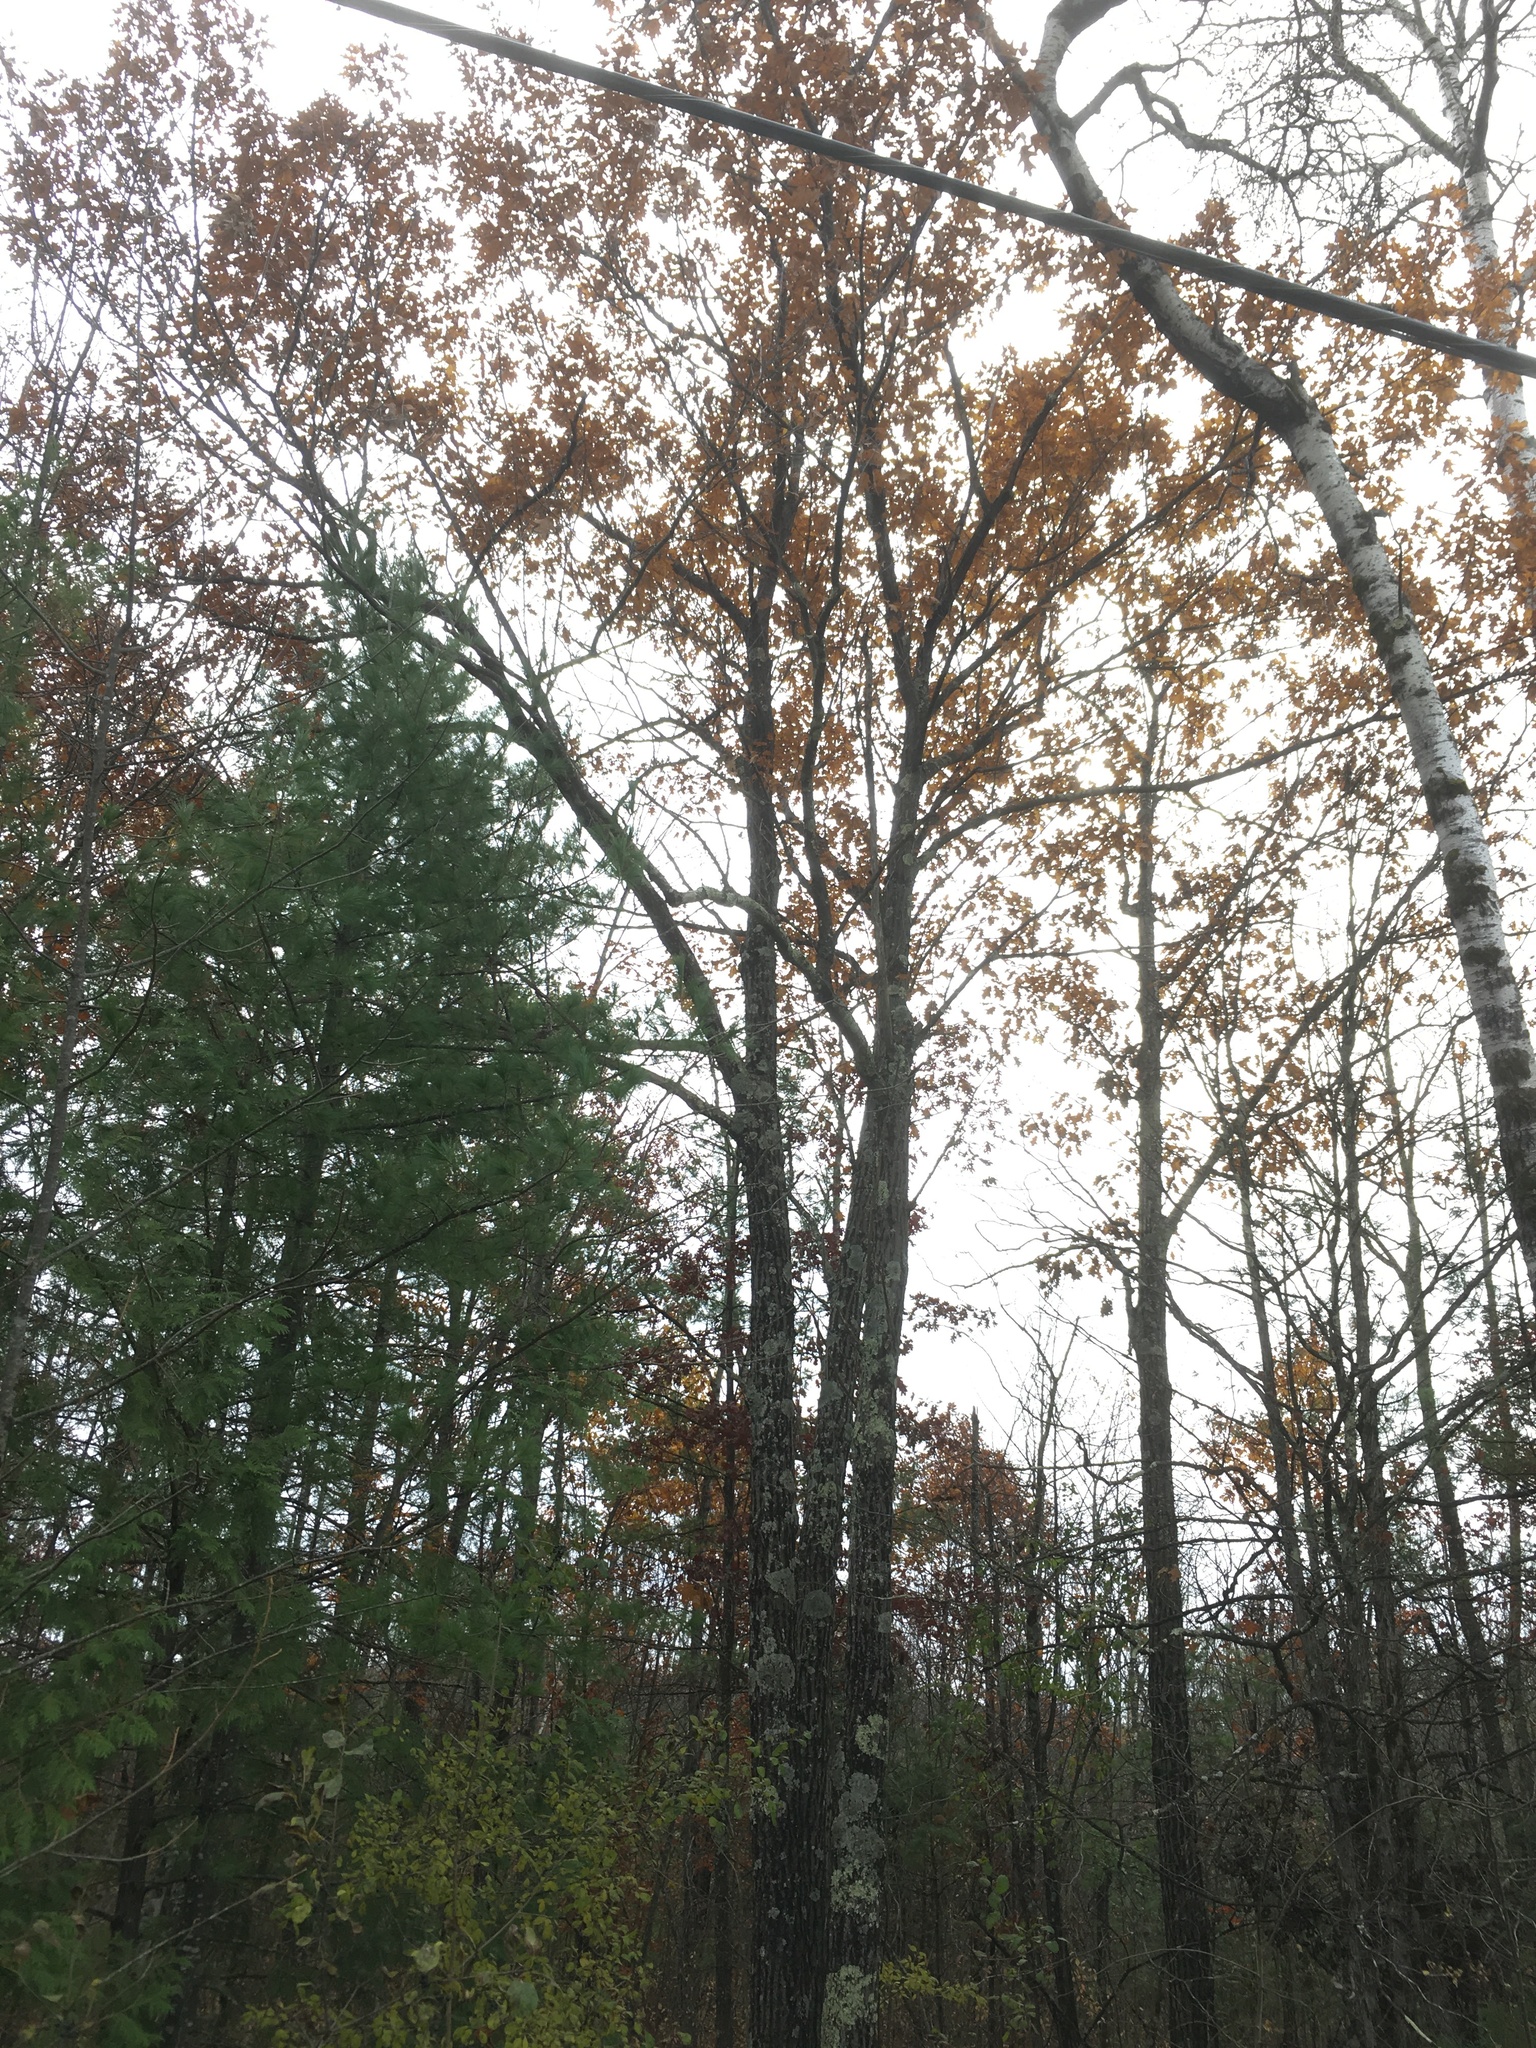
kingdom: Plantae
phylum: Tracheophyta
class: Magnoliopsida
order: Fagales
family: Fagaceae
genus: Quercus
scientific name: Quercus rubra
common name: Red oak
